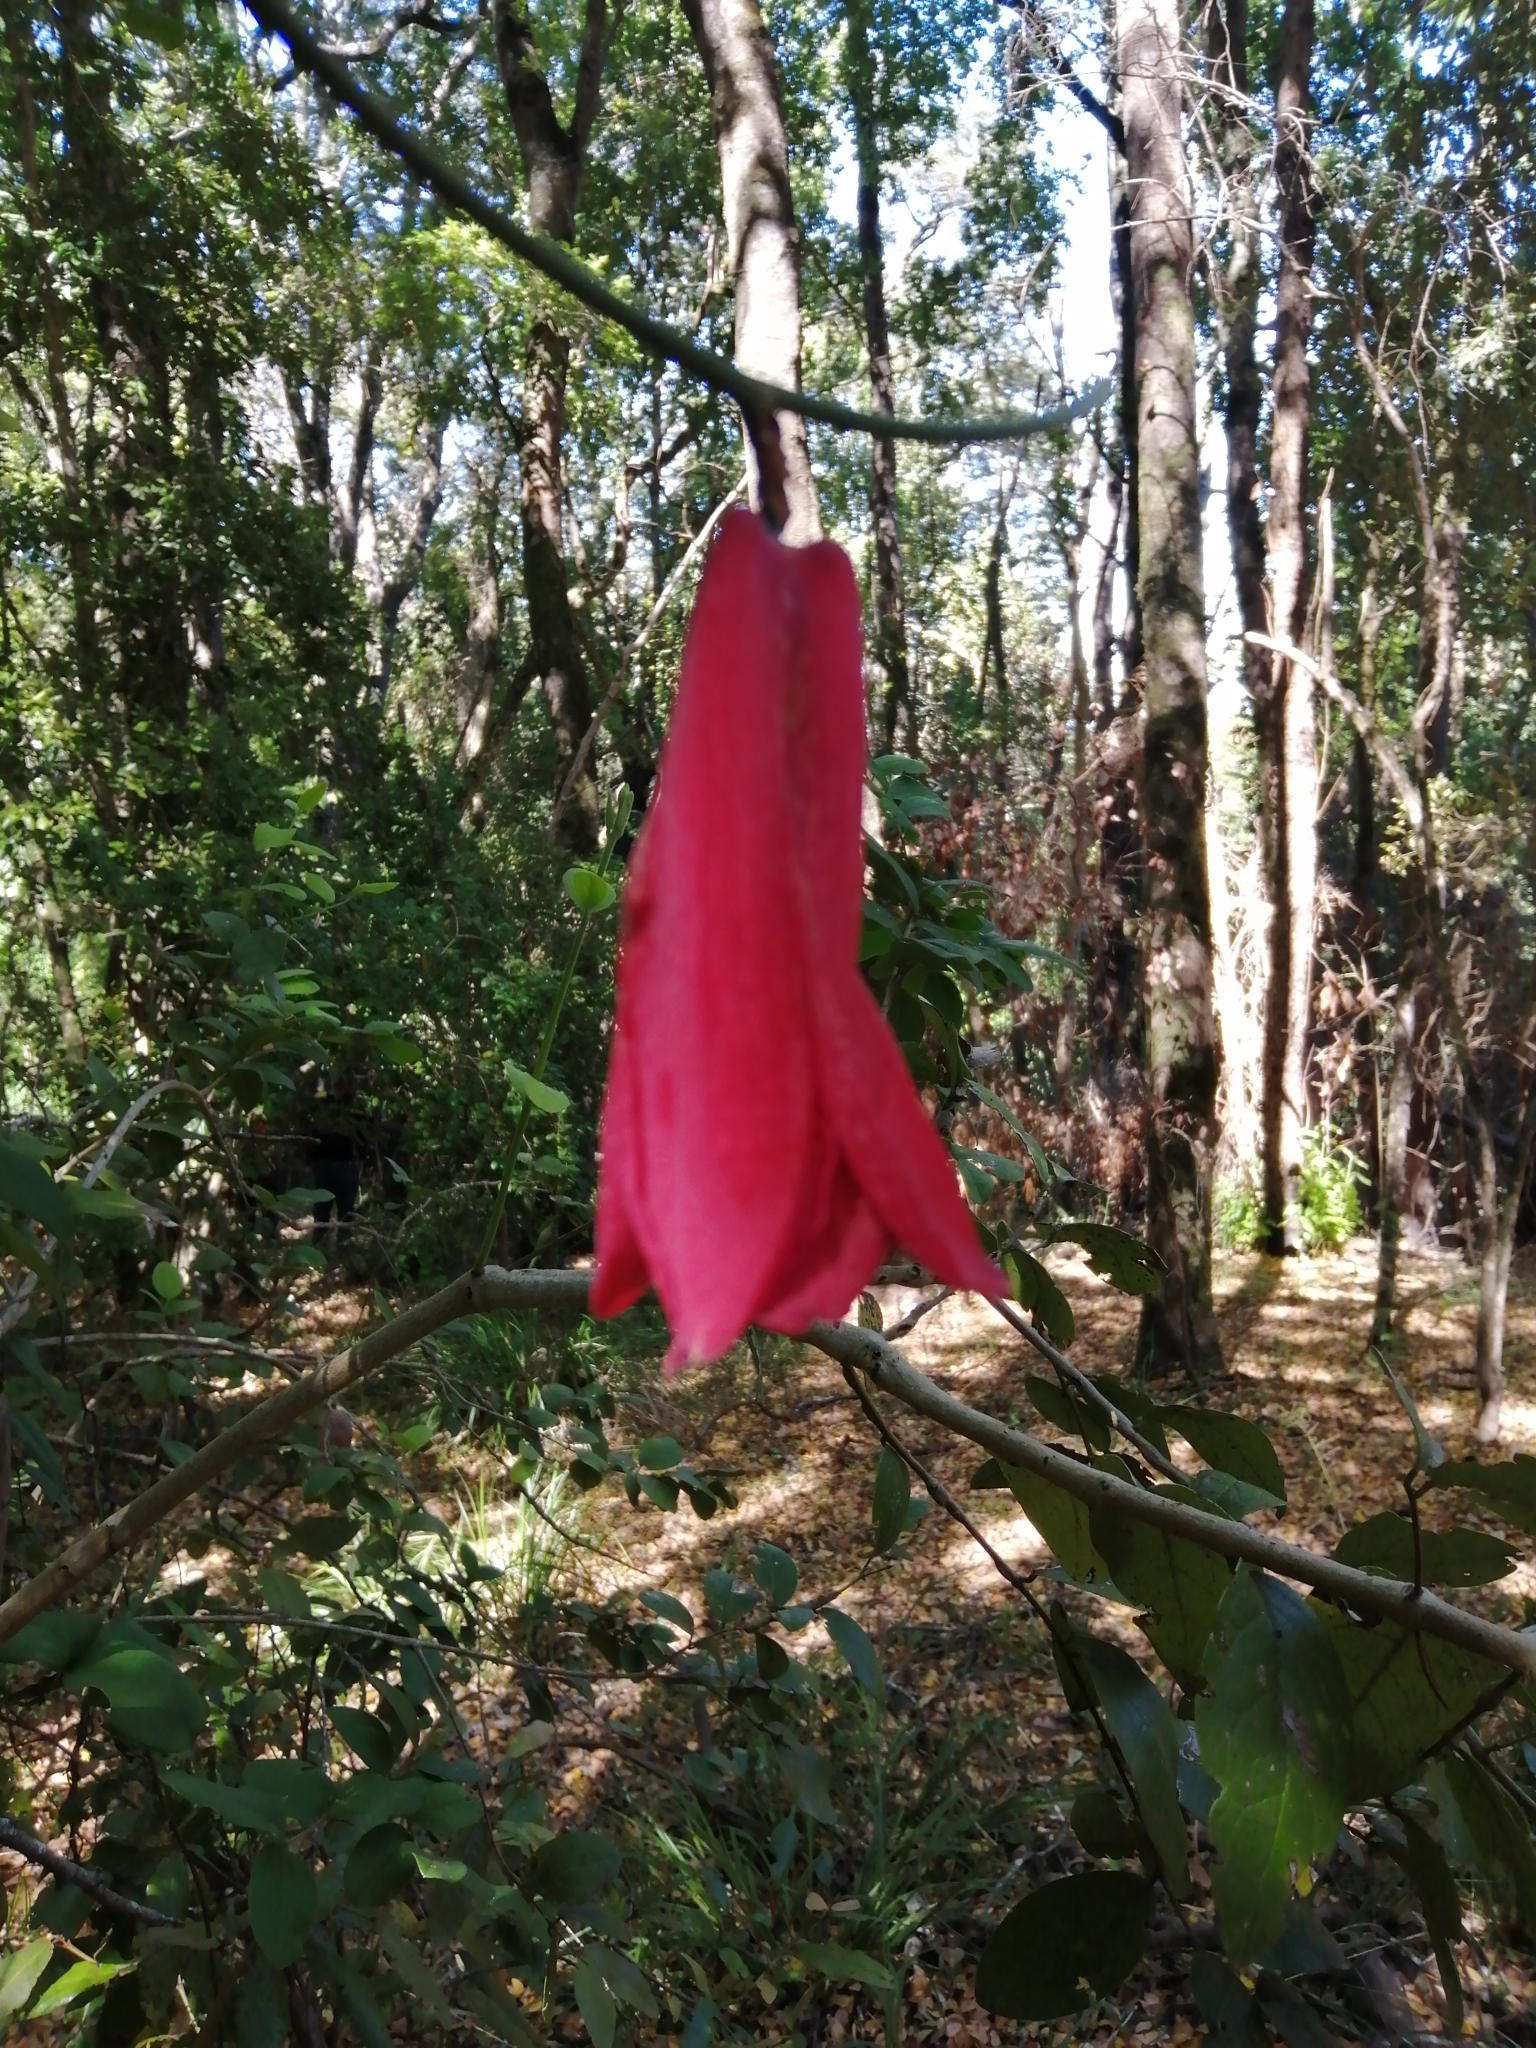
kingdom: Plantae
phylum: Tracheophyta
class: Liliopsida
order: Liliales
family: Philesiaceae
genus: Lapageria
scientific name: Lapageria rosea
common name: Chilean-bellflower
